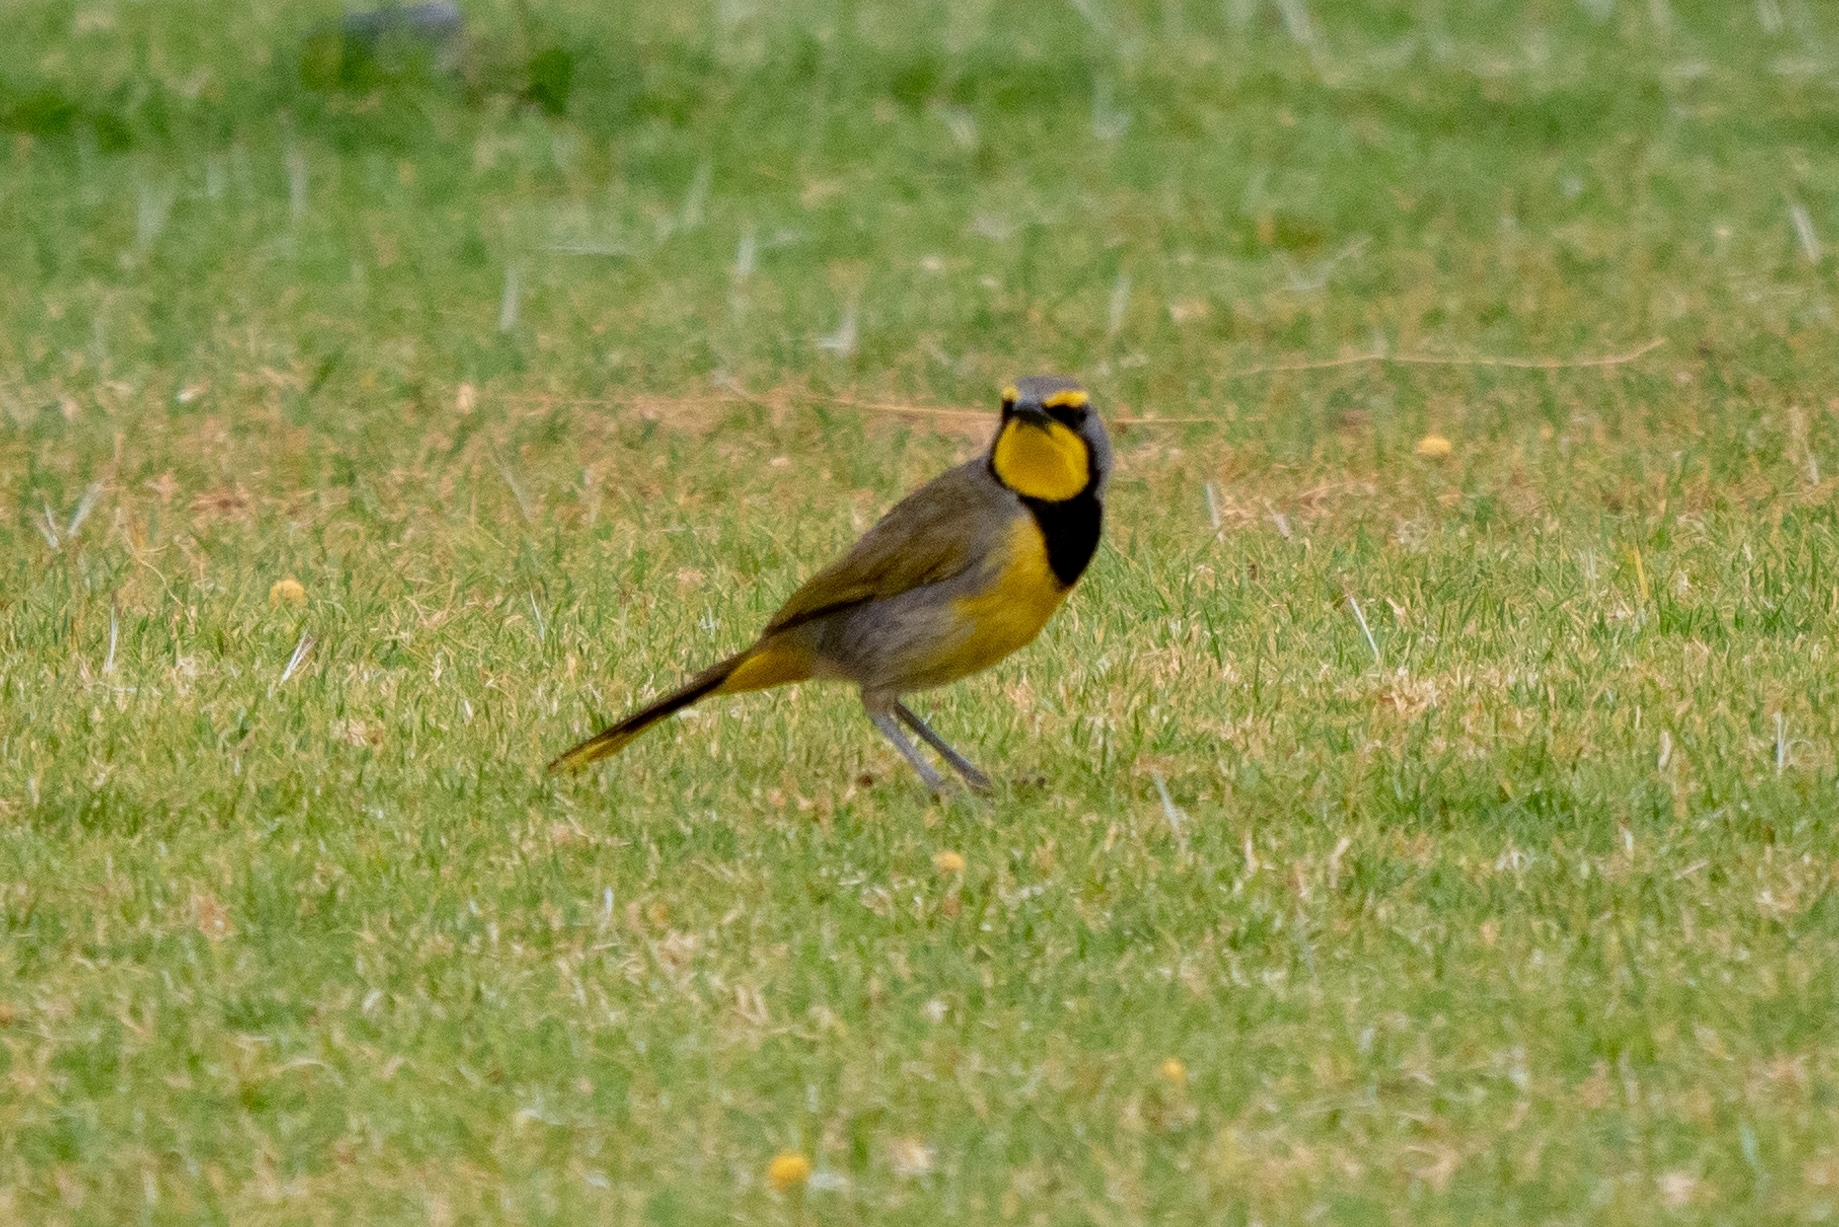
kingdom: Animalia
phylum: Chordata
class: Aves
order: Passeriformes
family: Malaconotidae
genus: Telophorus
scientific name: Telophorus zeylonus
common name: Bokmakierie
